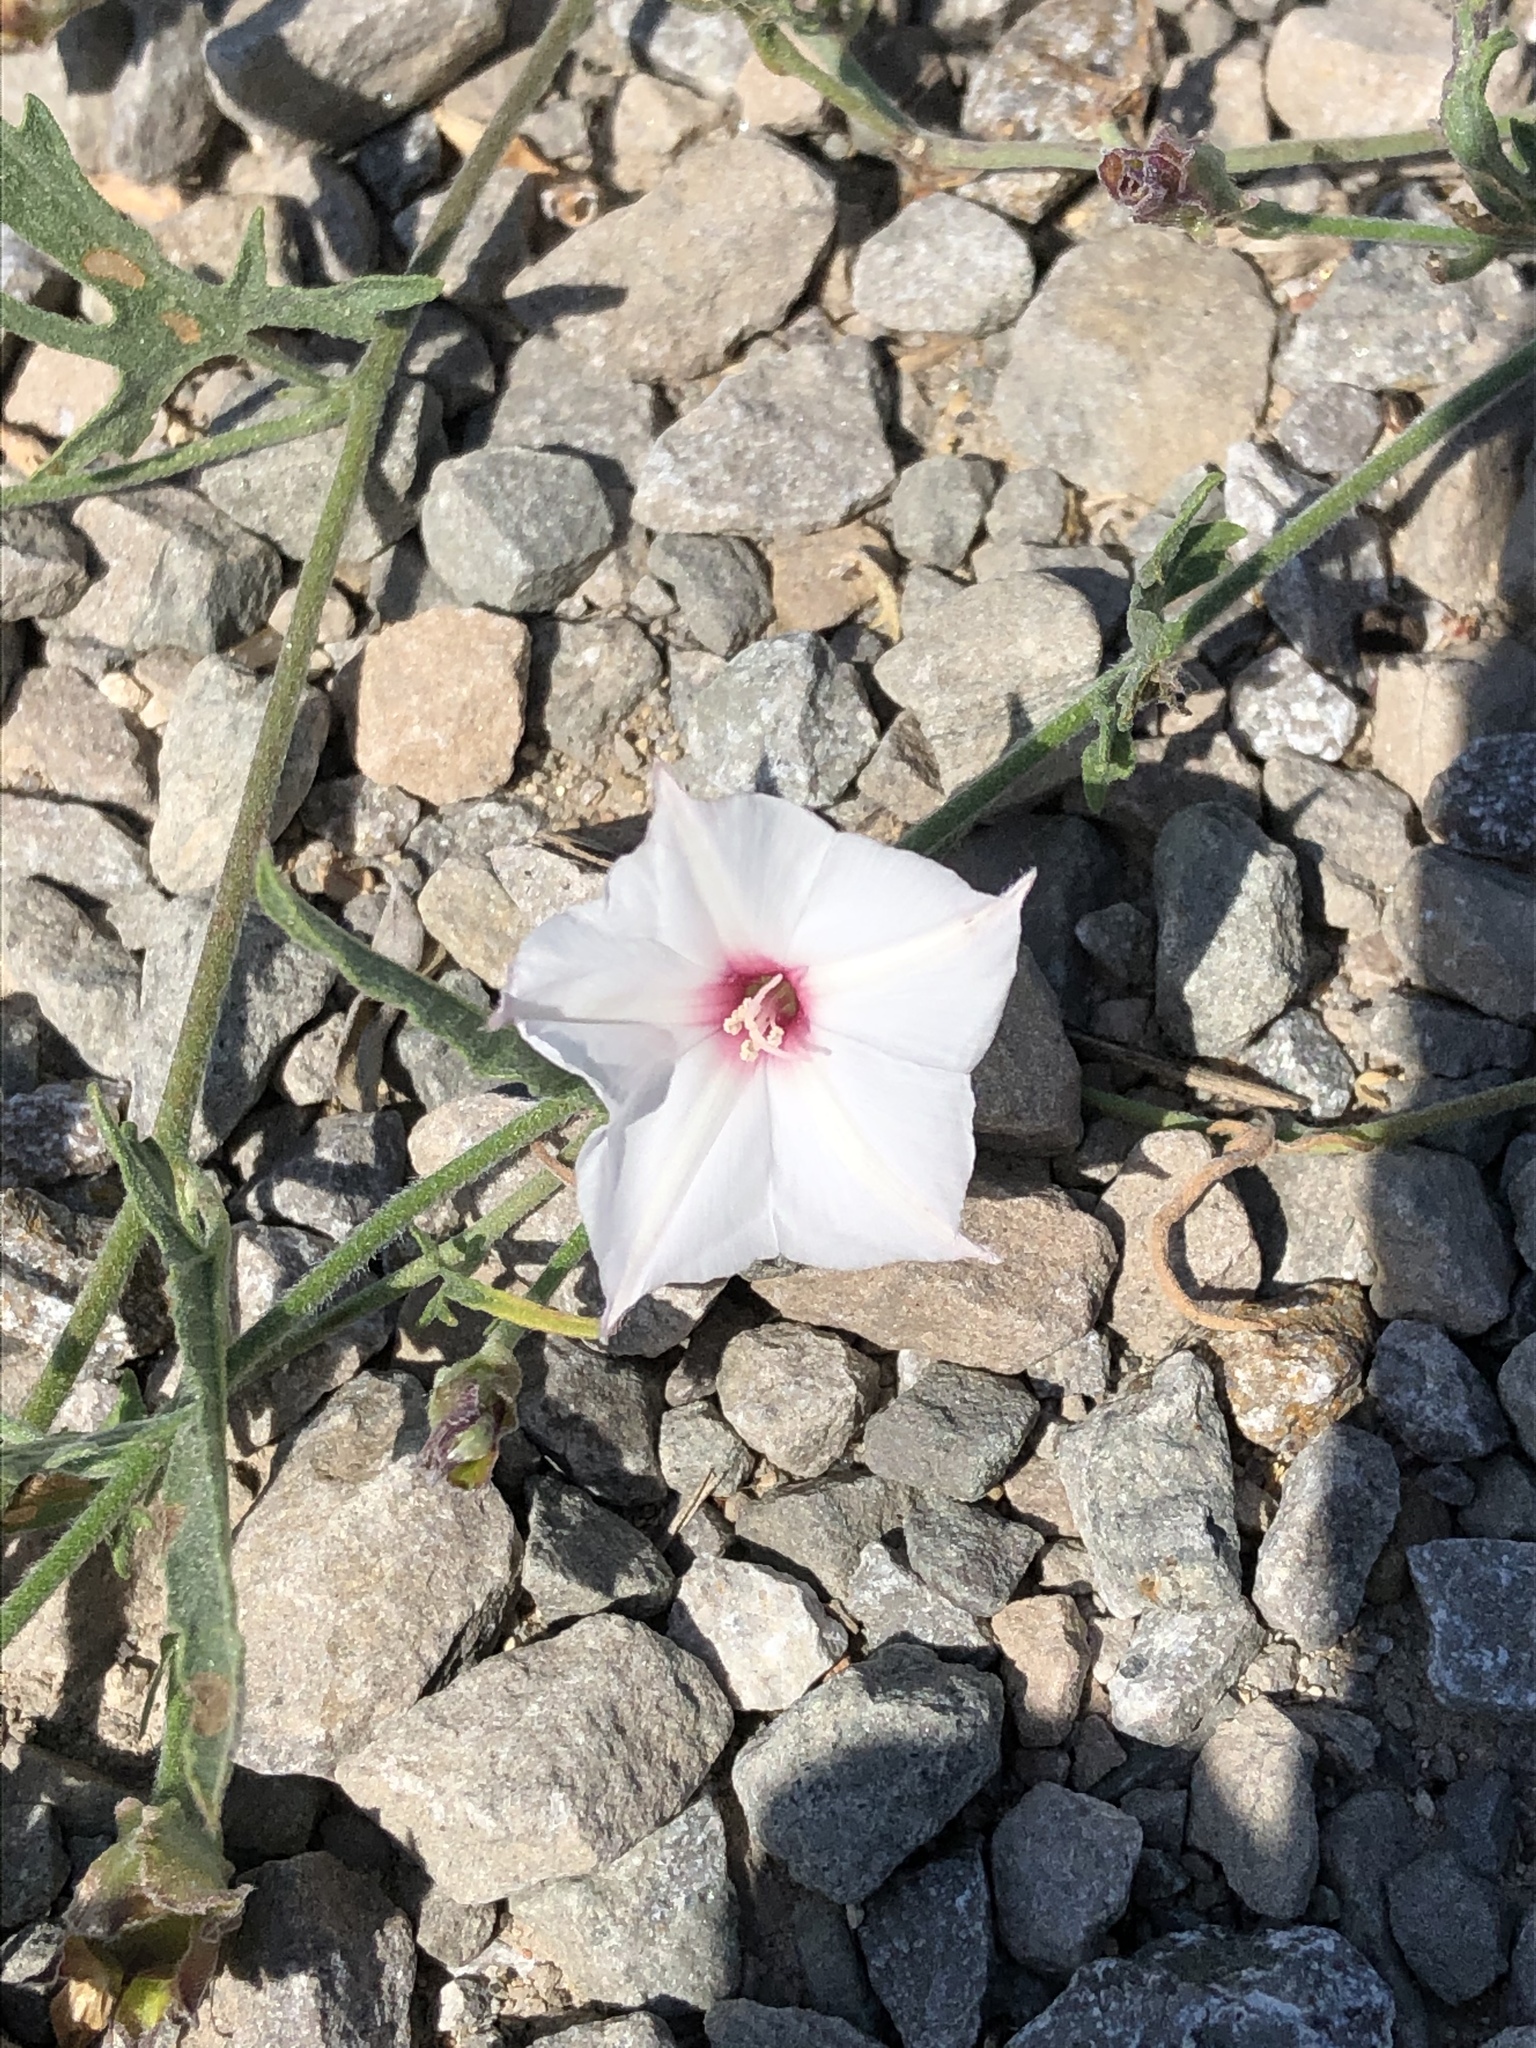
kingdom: Plantae
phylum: Tracheophyta
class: Magnoliopsida
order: Solanales
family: Convolvulaceae
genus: Convolvulus
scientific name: Convolvulus equitans
